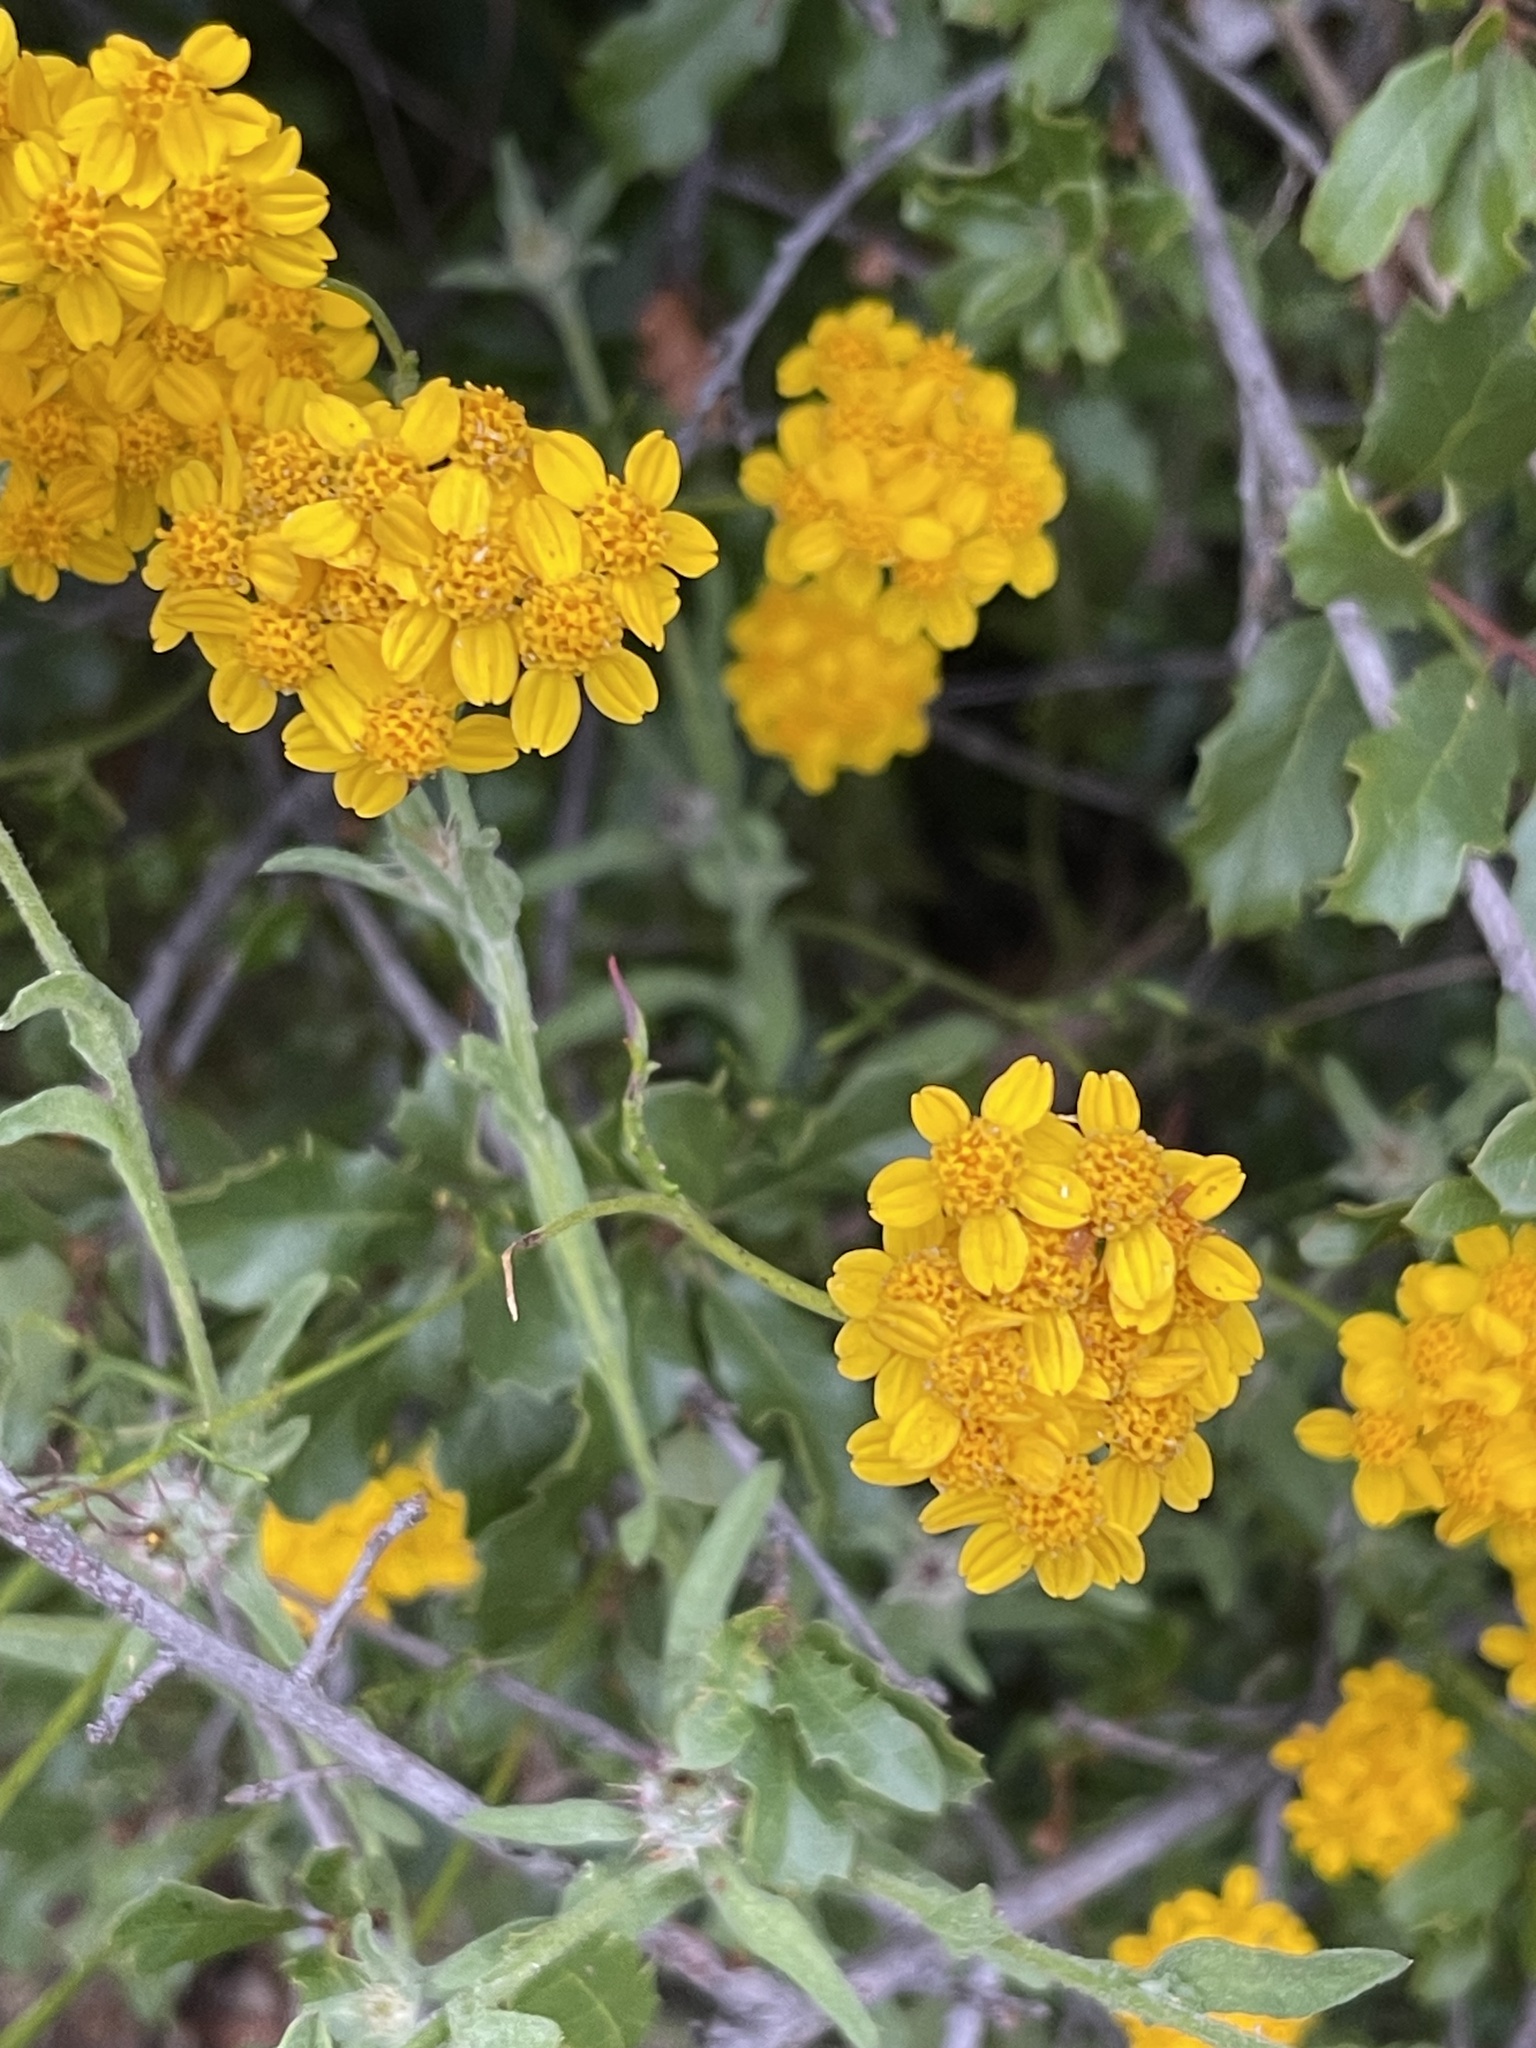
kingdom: Plantae
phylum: Tracheophyta
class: Magnoliopsida
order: Asterales
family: Asteraceae
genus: Eriophyllum
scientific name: Eriophyllum confertiflorum
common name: Golden-yarrow
